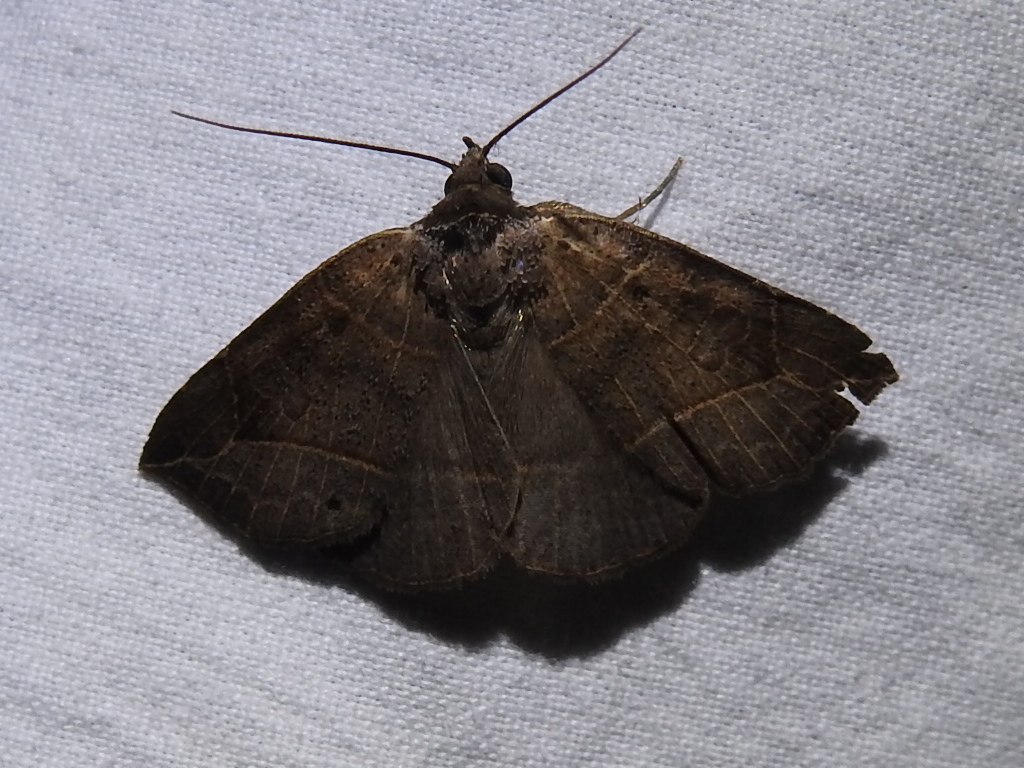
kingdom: Animalia
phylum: Arthropoda
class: Insecta
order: Lepidoptera
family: Erebidae
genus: Isogona
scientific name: Isogona tenuis
